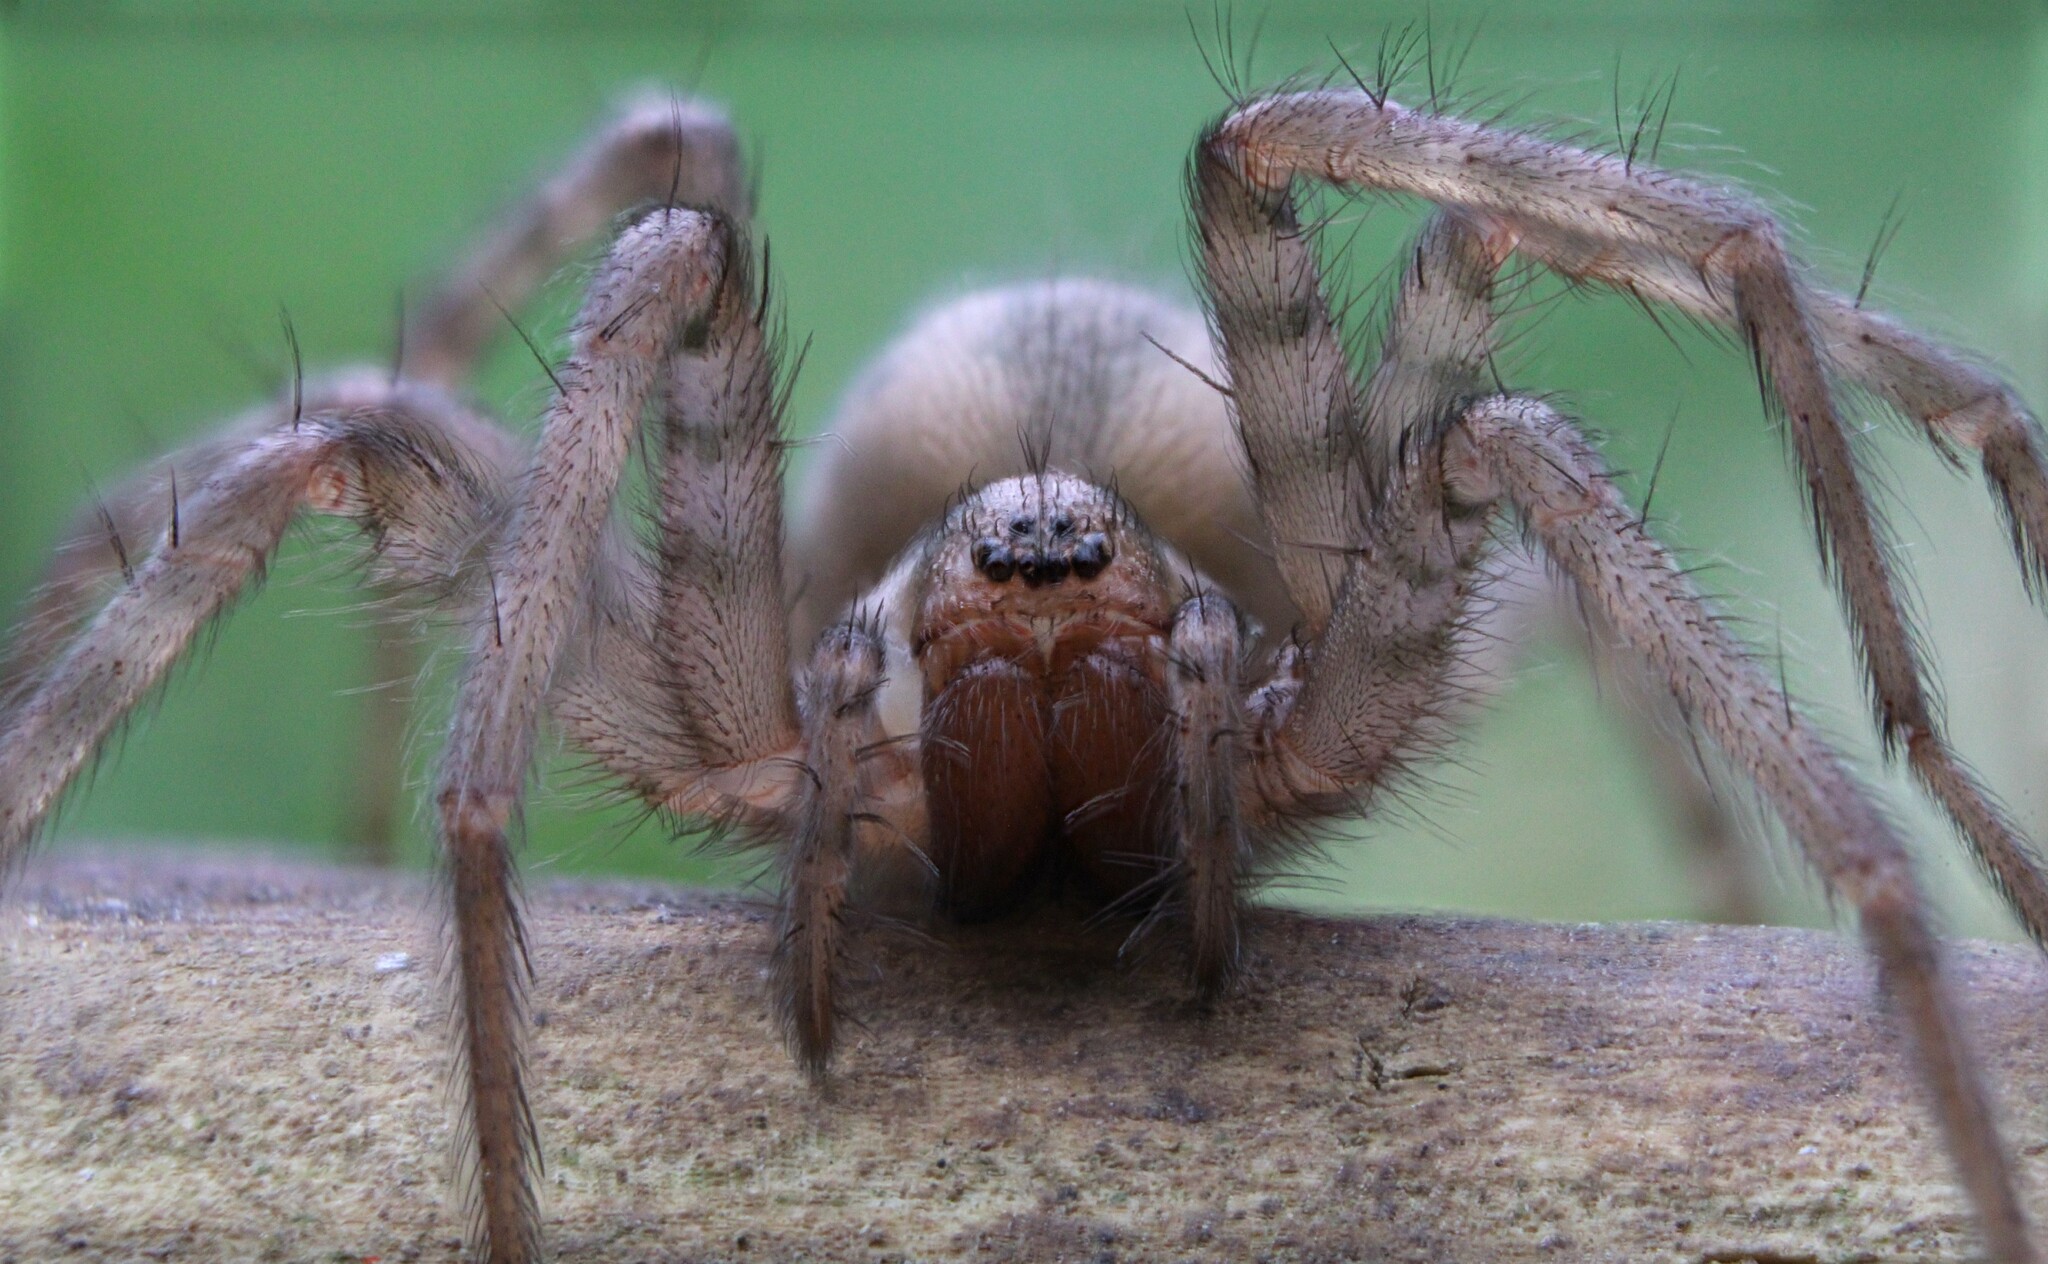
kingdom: Animalia
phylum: Arthropoda
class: Arachnida
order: Araneae
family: Agelenidae
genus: Tegenaria
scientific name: Tegenaria domestica
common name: Barn funnel weaver
